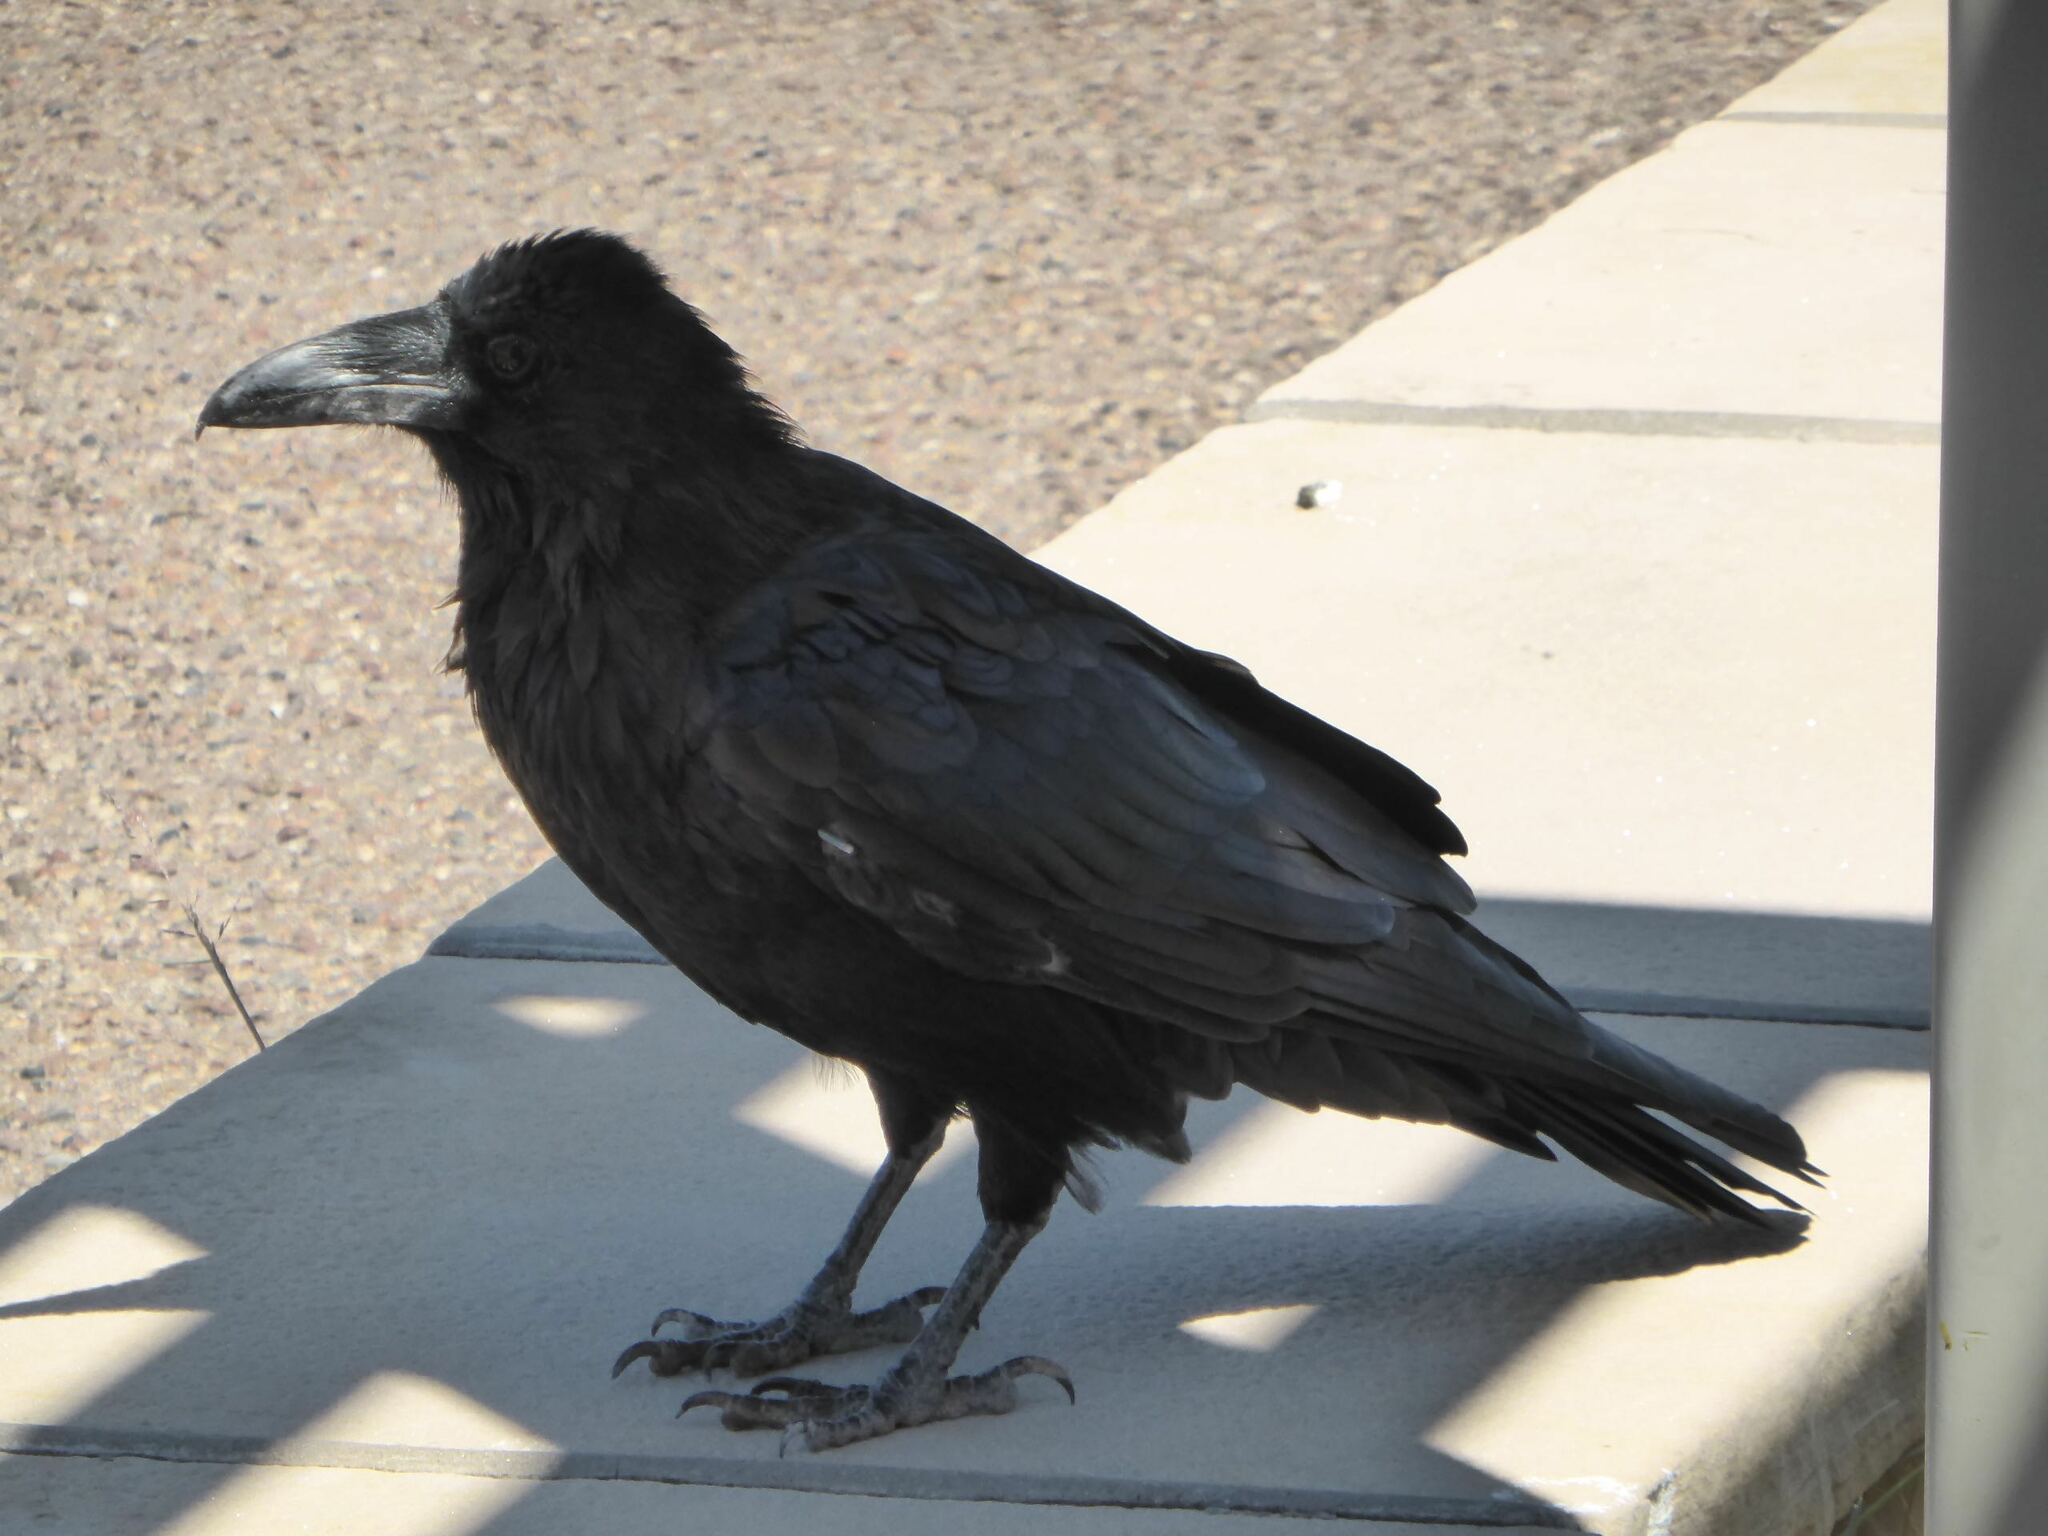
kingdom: Animalia
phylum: Chordata
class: Aves
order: Passeriformes
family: Corvidae
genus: Corvus
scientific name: Corvus corax
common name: Common raven
